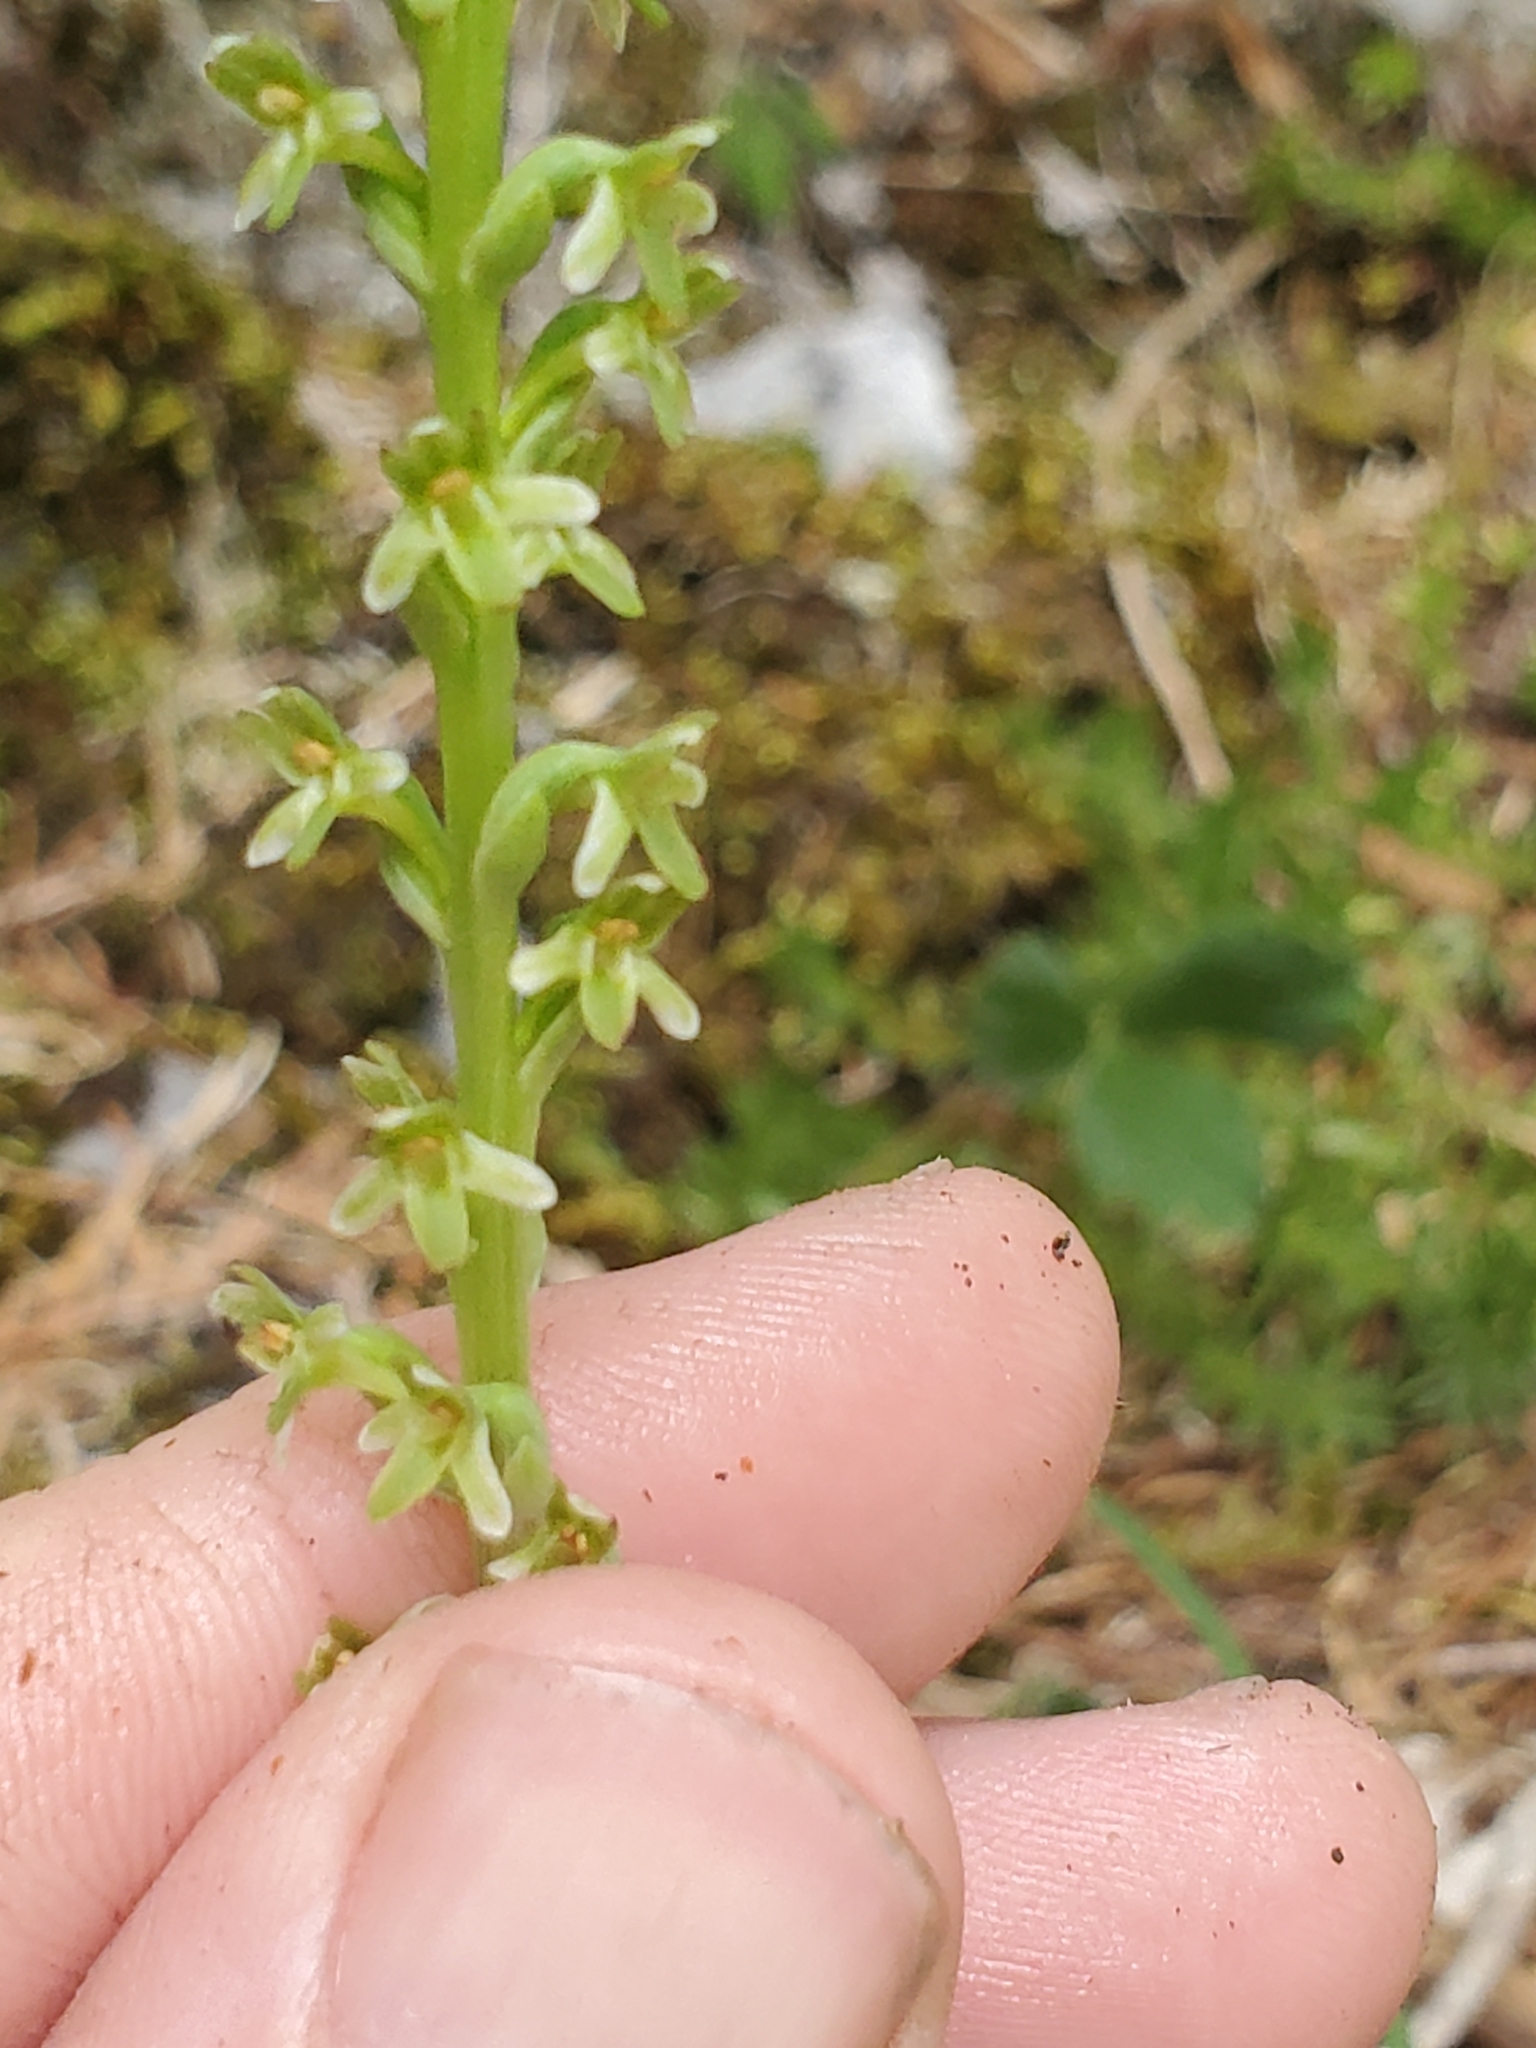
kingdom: Plantae
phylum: Tracheophyta
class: Liliopsida
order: Asparagales
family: Orchidaceae
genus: Platanthera
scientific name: Platanthera unalascensis
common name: Alaska bog orchid
